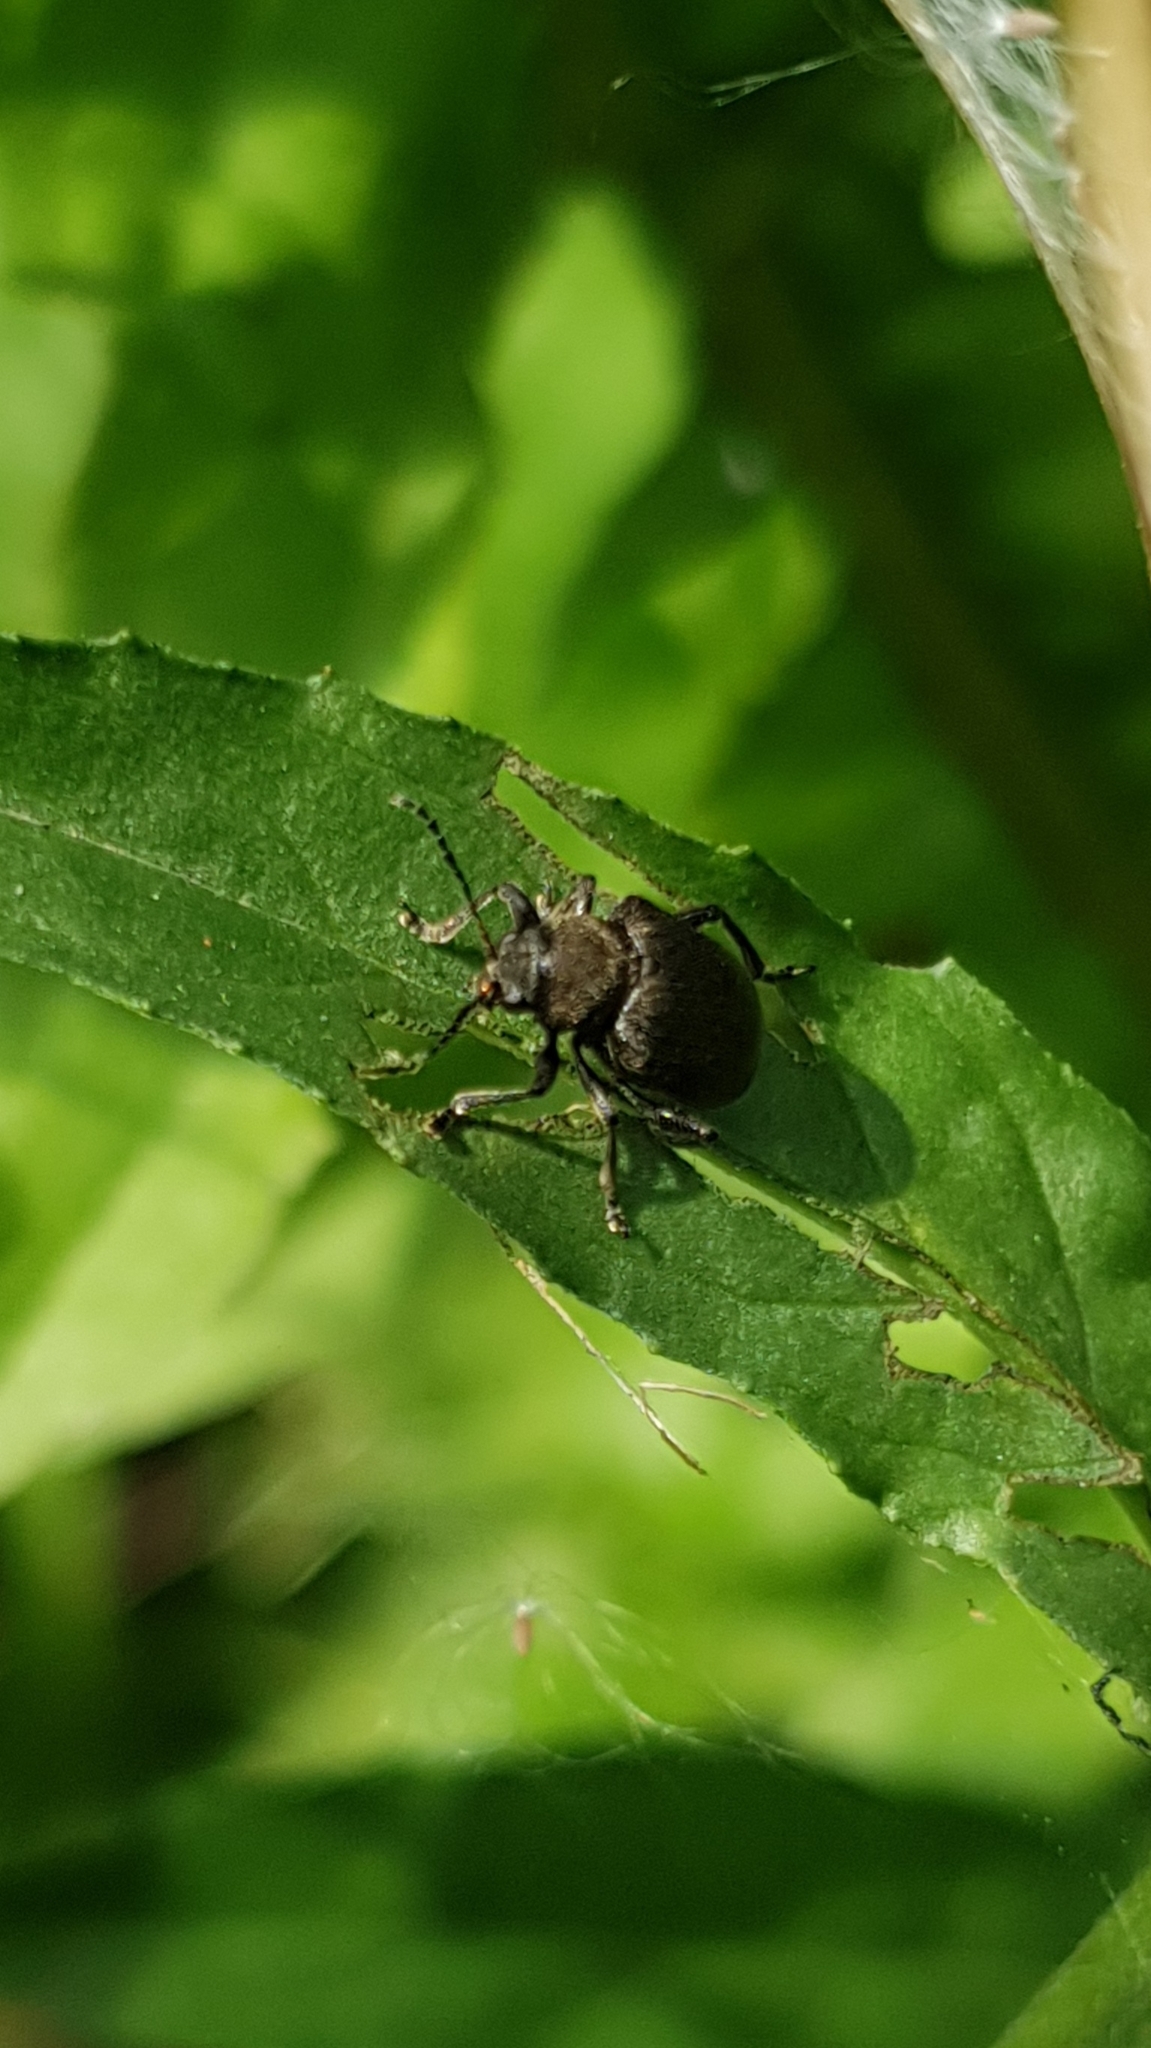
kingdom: Animalia
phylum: Arthropoda
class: Insecta
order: Coleoptera
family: Chrysomelidae
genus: Bromius
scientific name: Bromius obscurus
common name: Western grape rootworm
